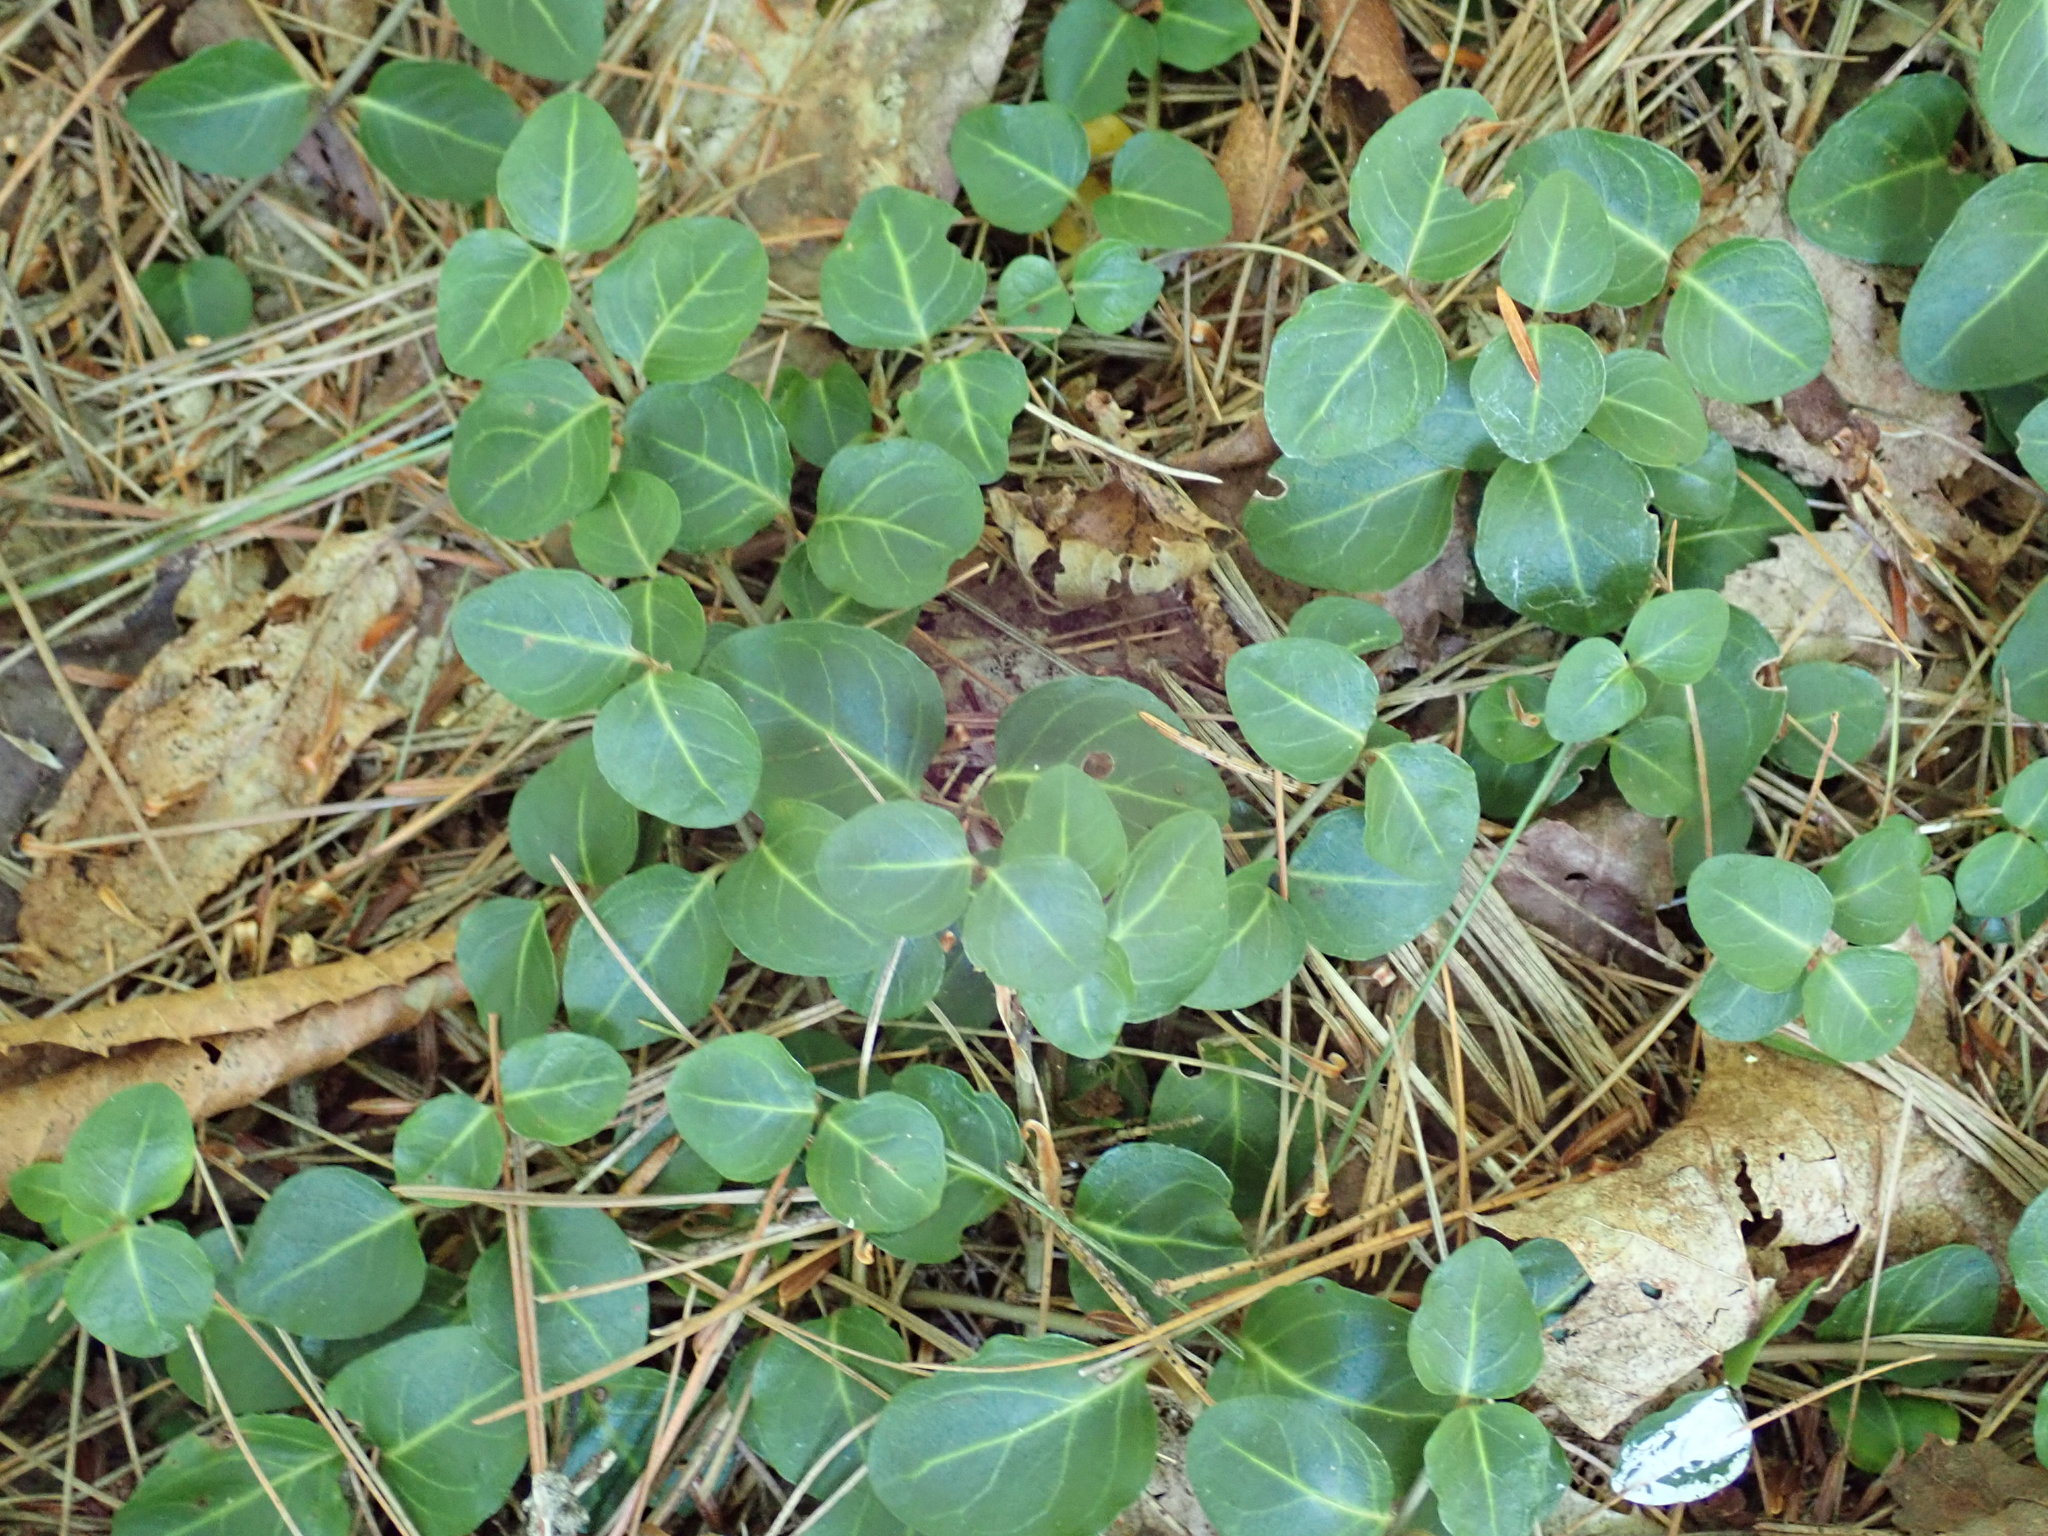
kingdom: Plantae
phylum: Tracheophyta
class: Magnoliopsida
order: Gentianales
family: Rubiaceae
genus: Mitchella
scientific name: Mitchella repens
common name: Partridge-berry
